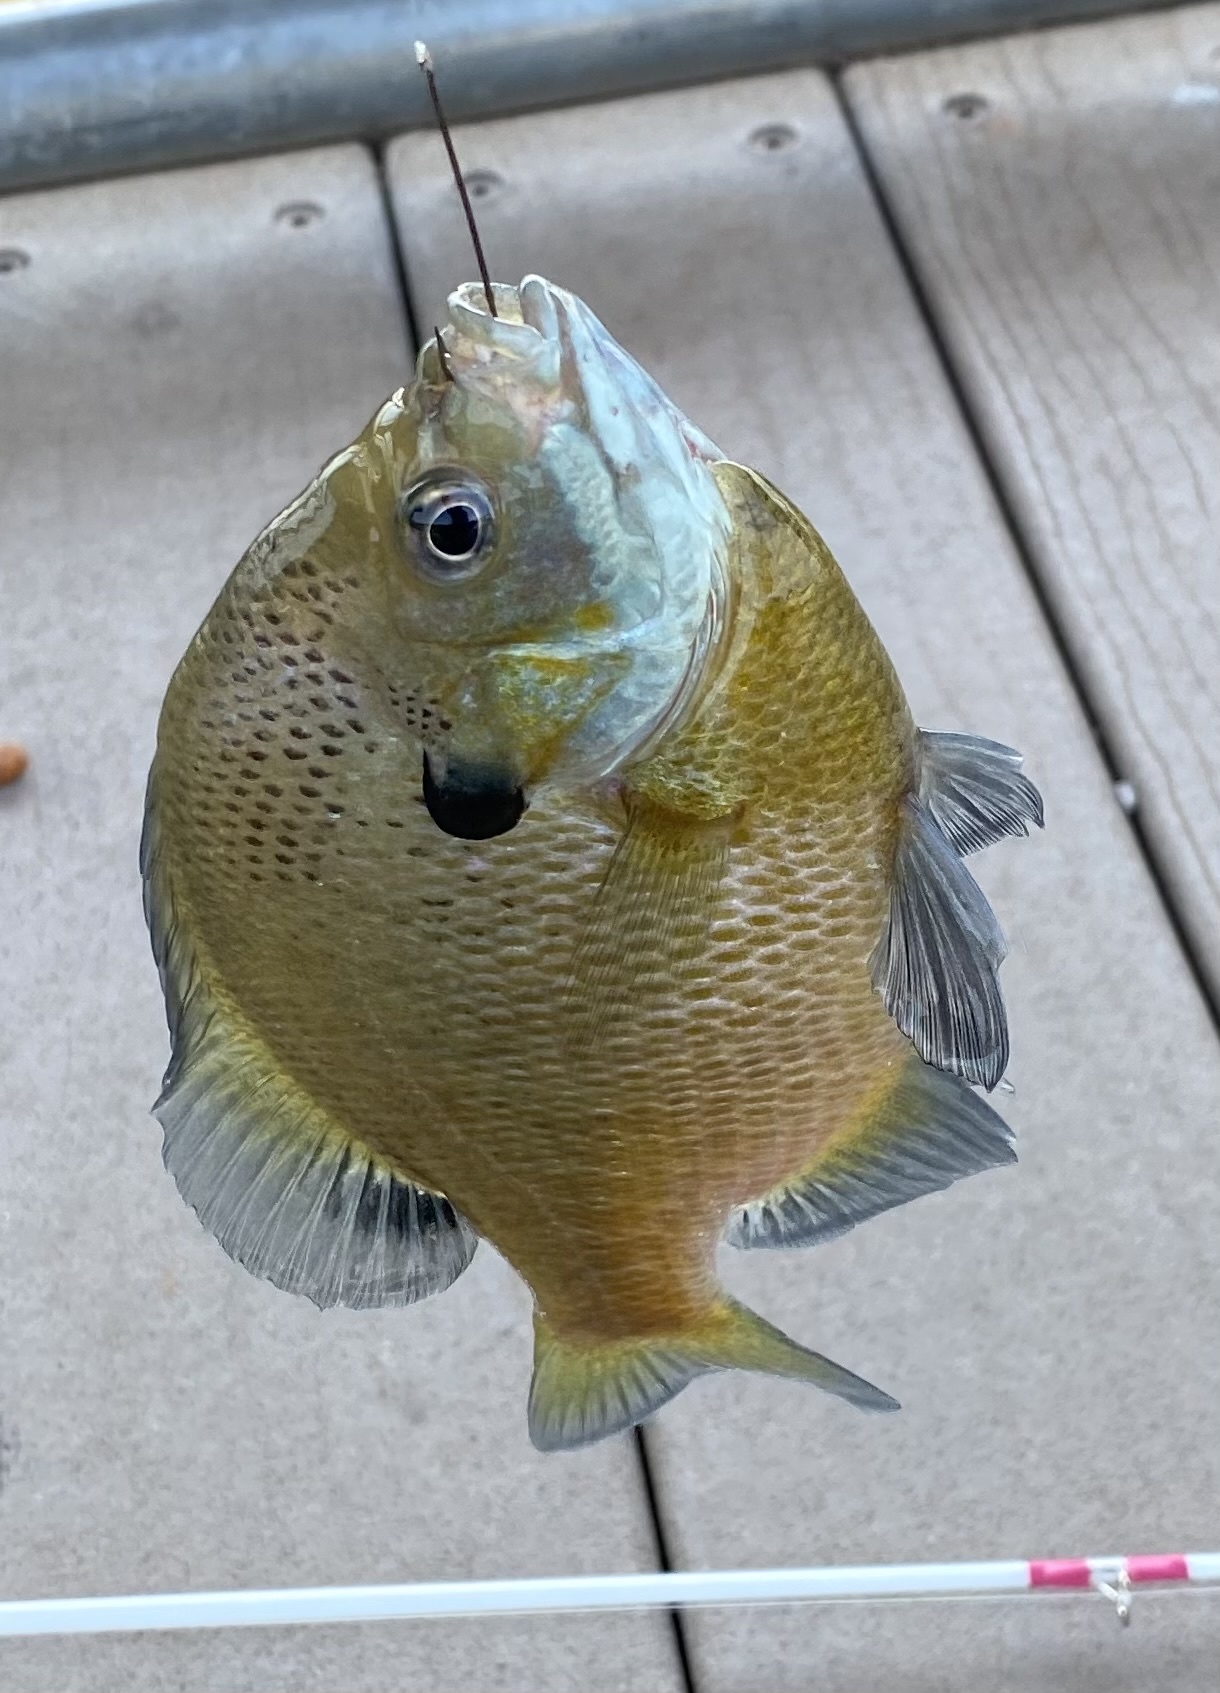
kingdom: Animalia
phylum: Chordata
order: Perciformes
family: Centrarchidae
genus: Lepomis
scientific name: Lepomis macrochirus
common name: Bluegill
